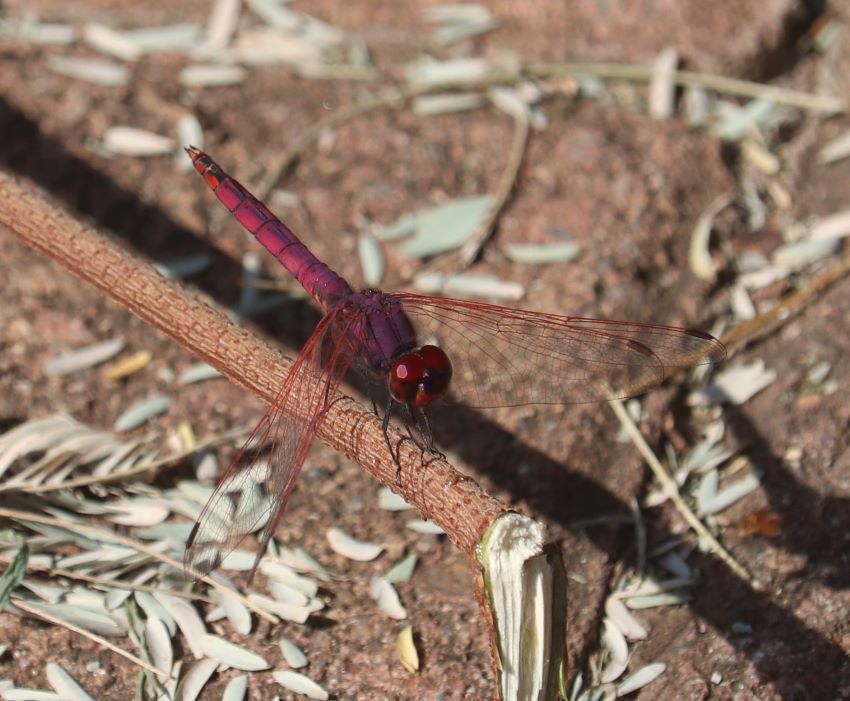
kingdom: Animalia
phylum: Arthropoda
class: Insecta
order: Odonata
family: Libellulidae
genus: Trithemis
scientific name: Trithemis annulata
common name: Violet dropwing
